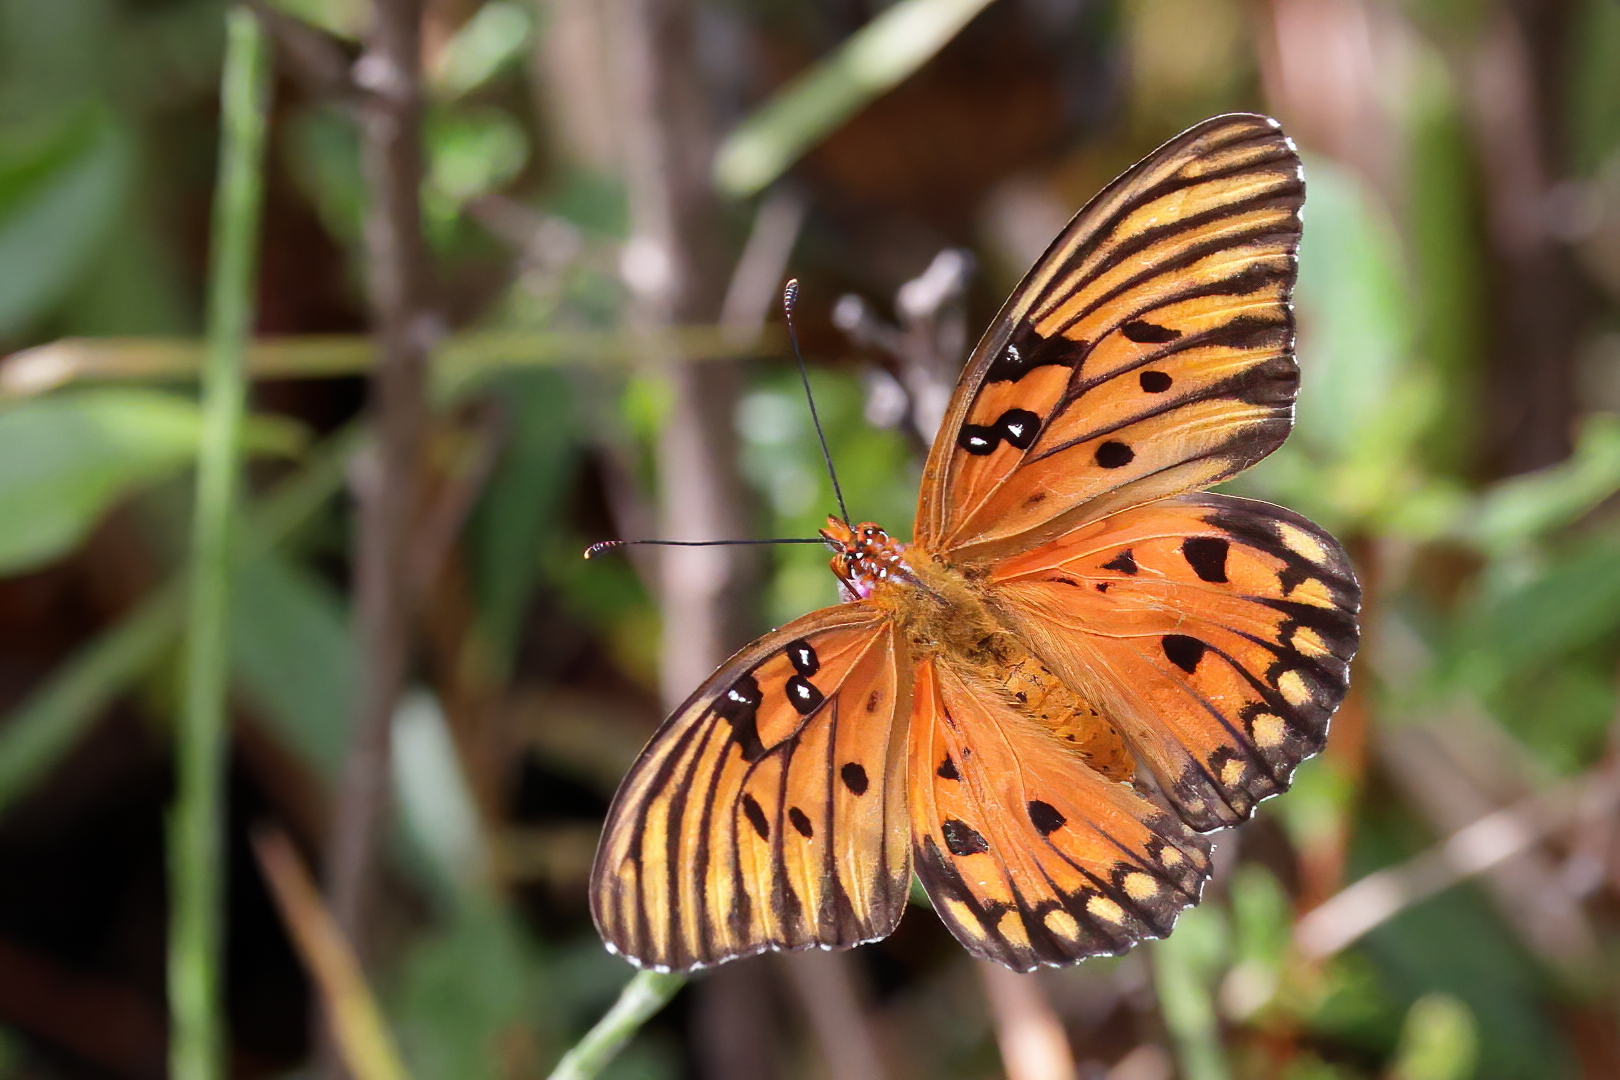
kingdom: Animalia
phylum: Arthropoda
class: Insecta
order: Lepidoptera
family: Nymphalidae
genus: Dione
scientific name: Dione vanillae
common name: Gulf fritillary
